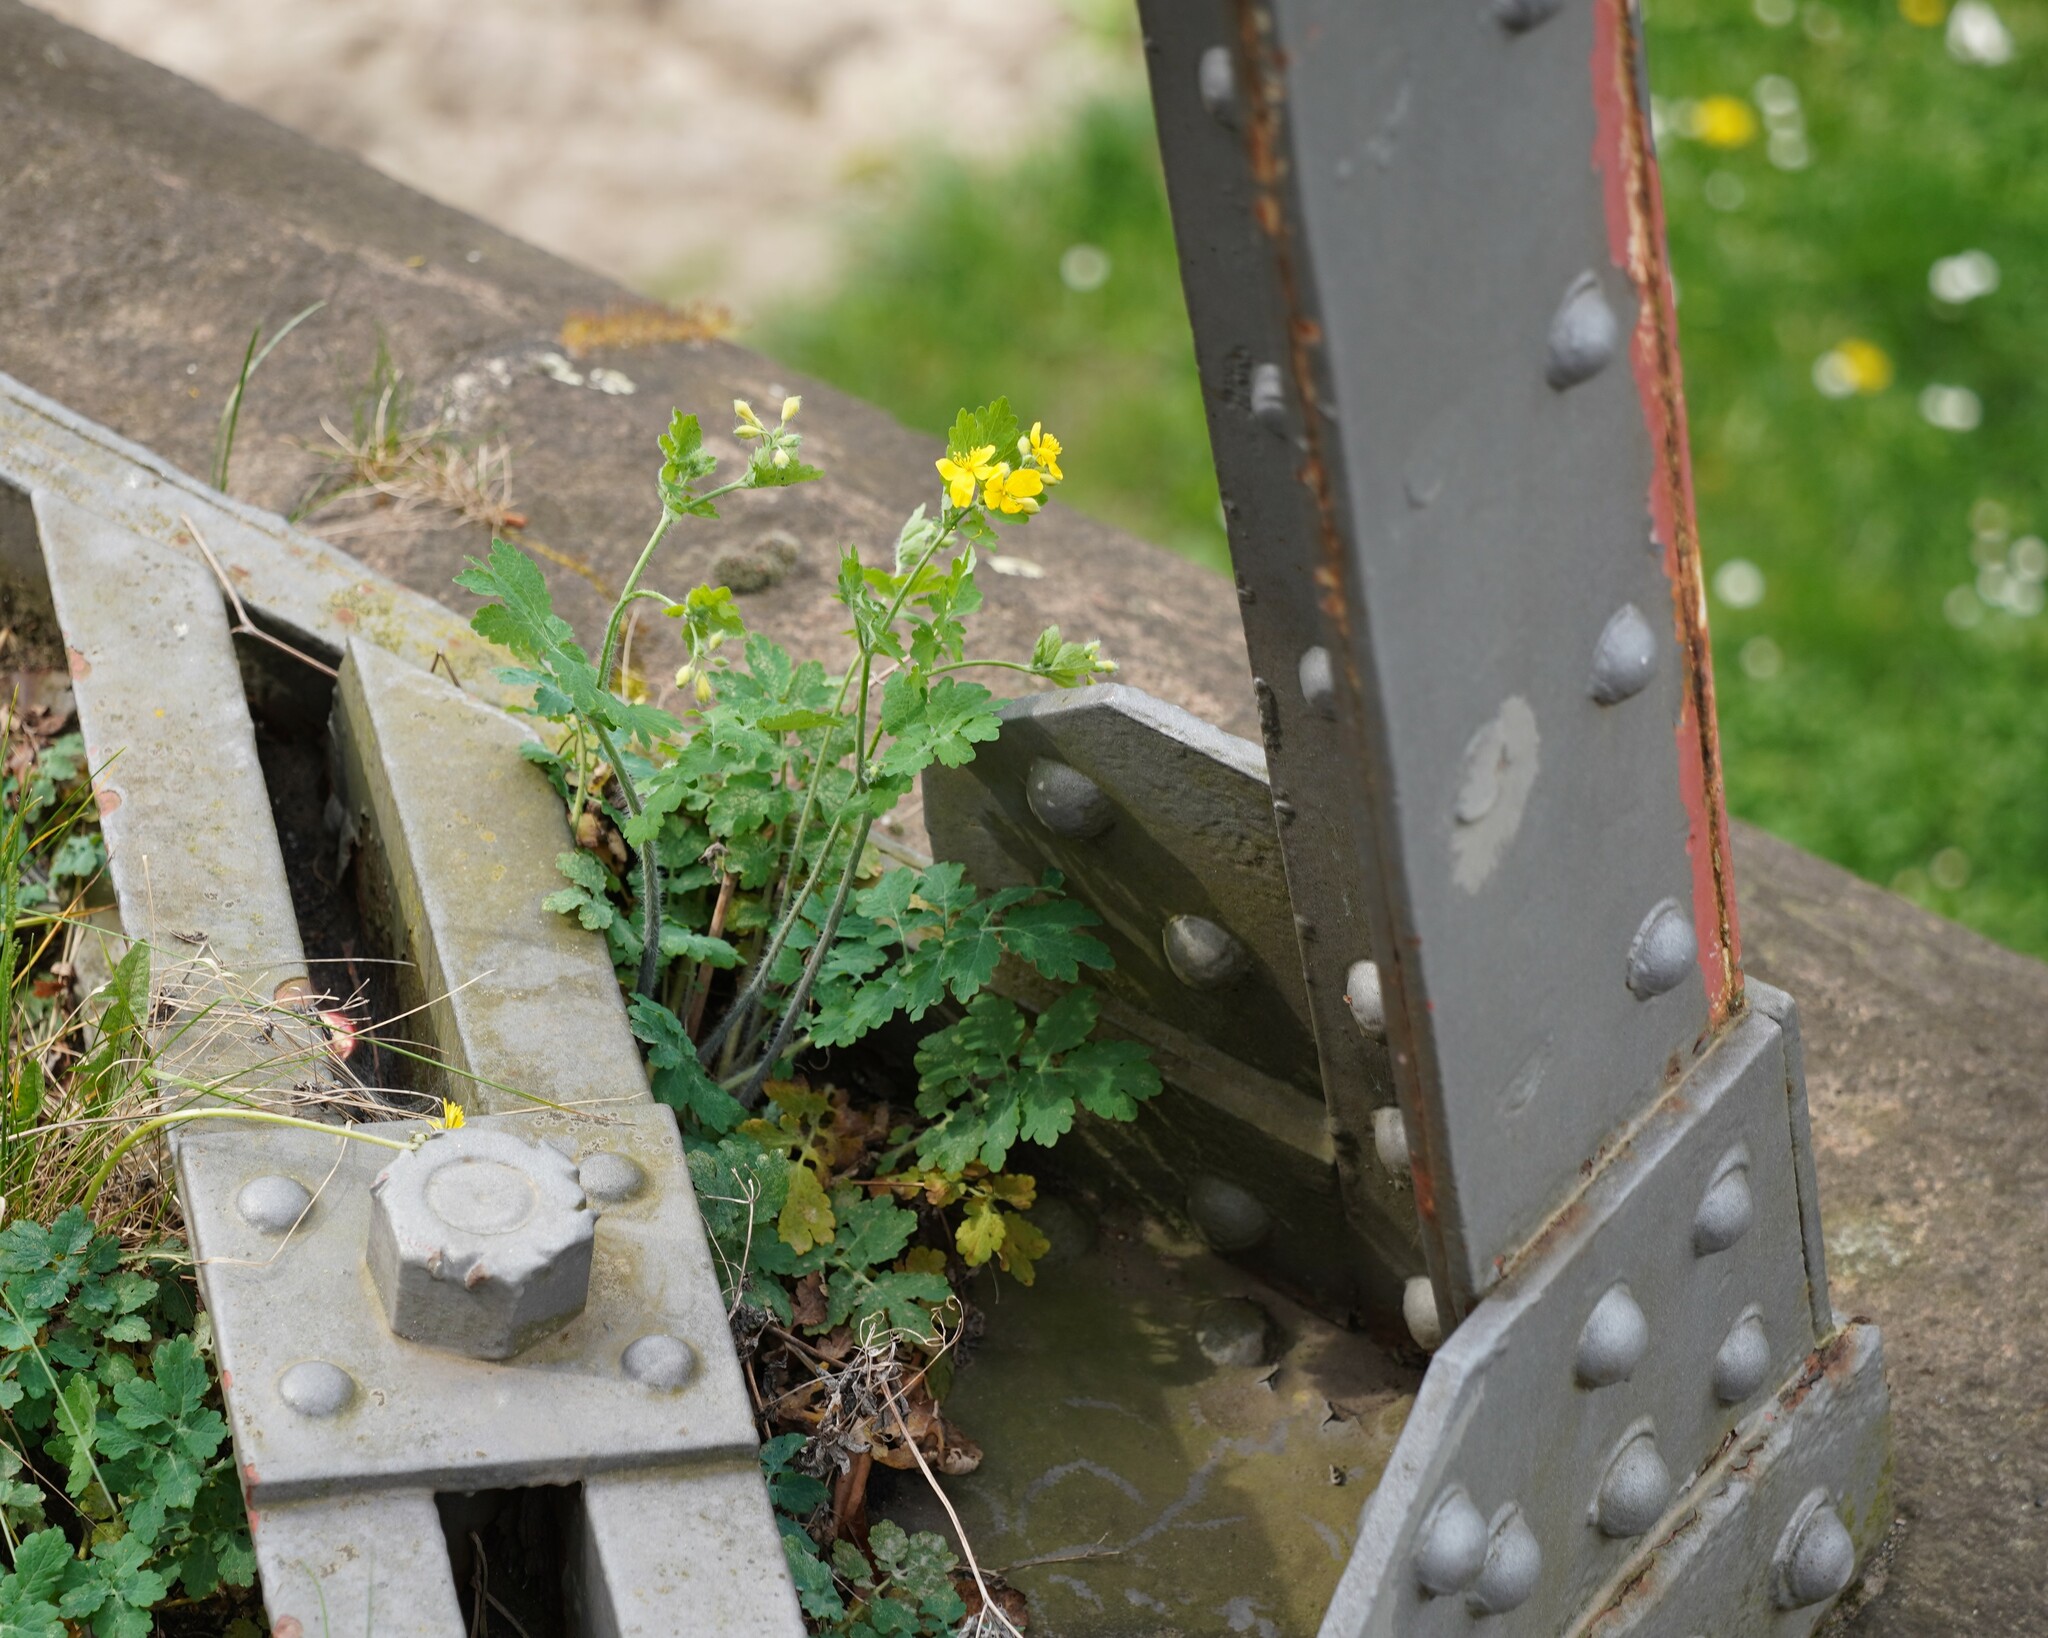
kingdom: Plantae
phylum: Tracheophyta
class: Magnoliopsida
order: Ranunculales
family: Papaveraceae
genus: Chelidonium
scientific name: Chelidonium majus
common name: Greater celandine
